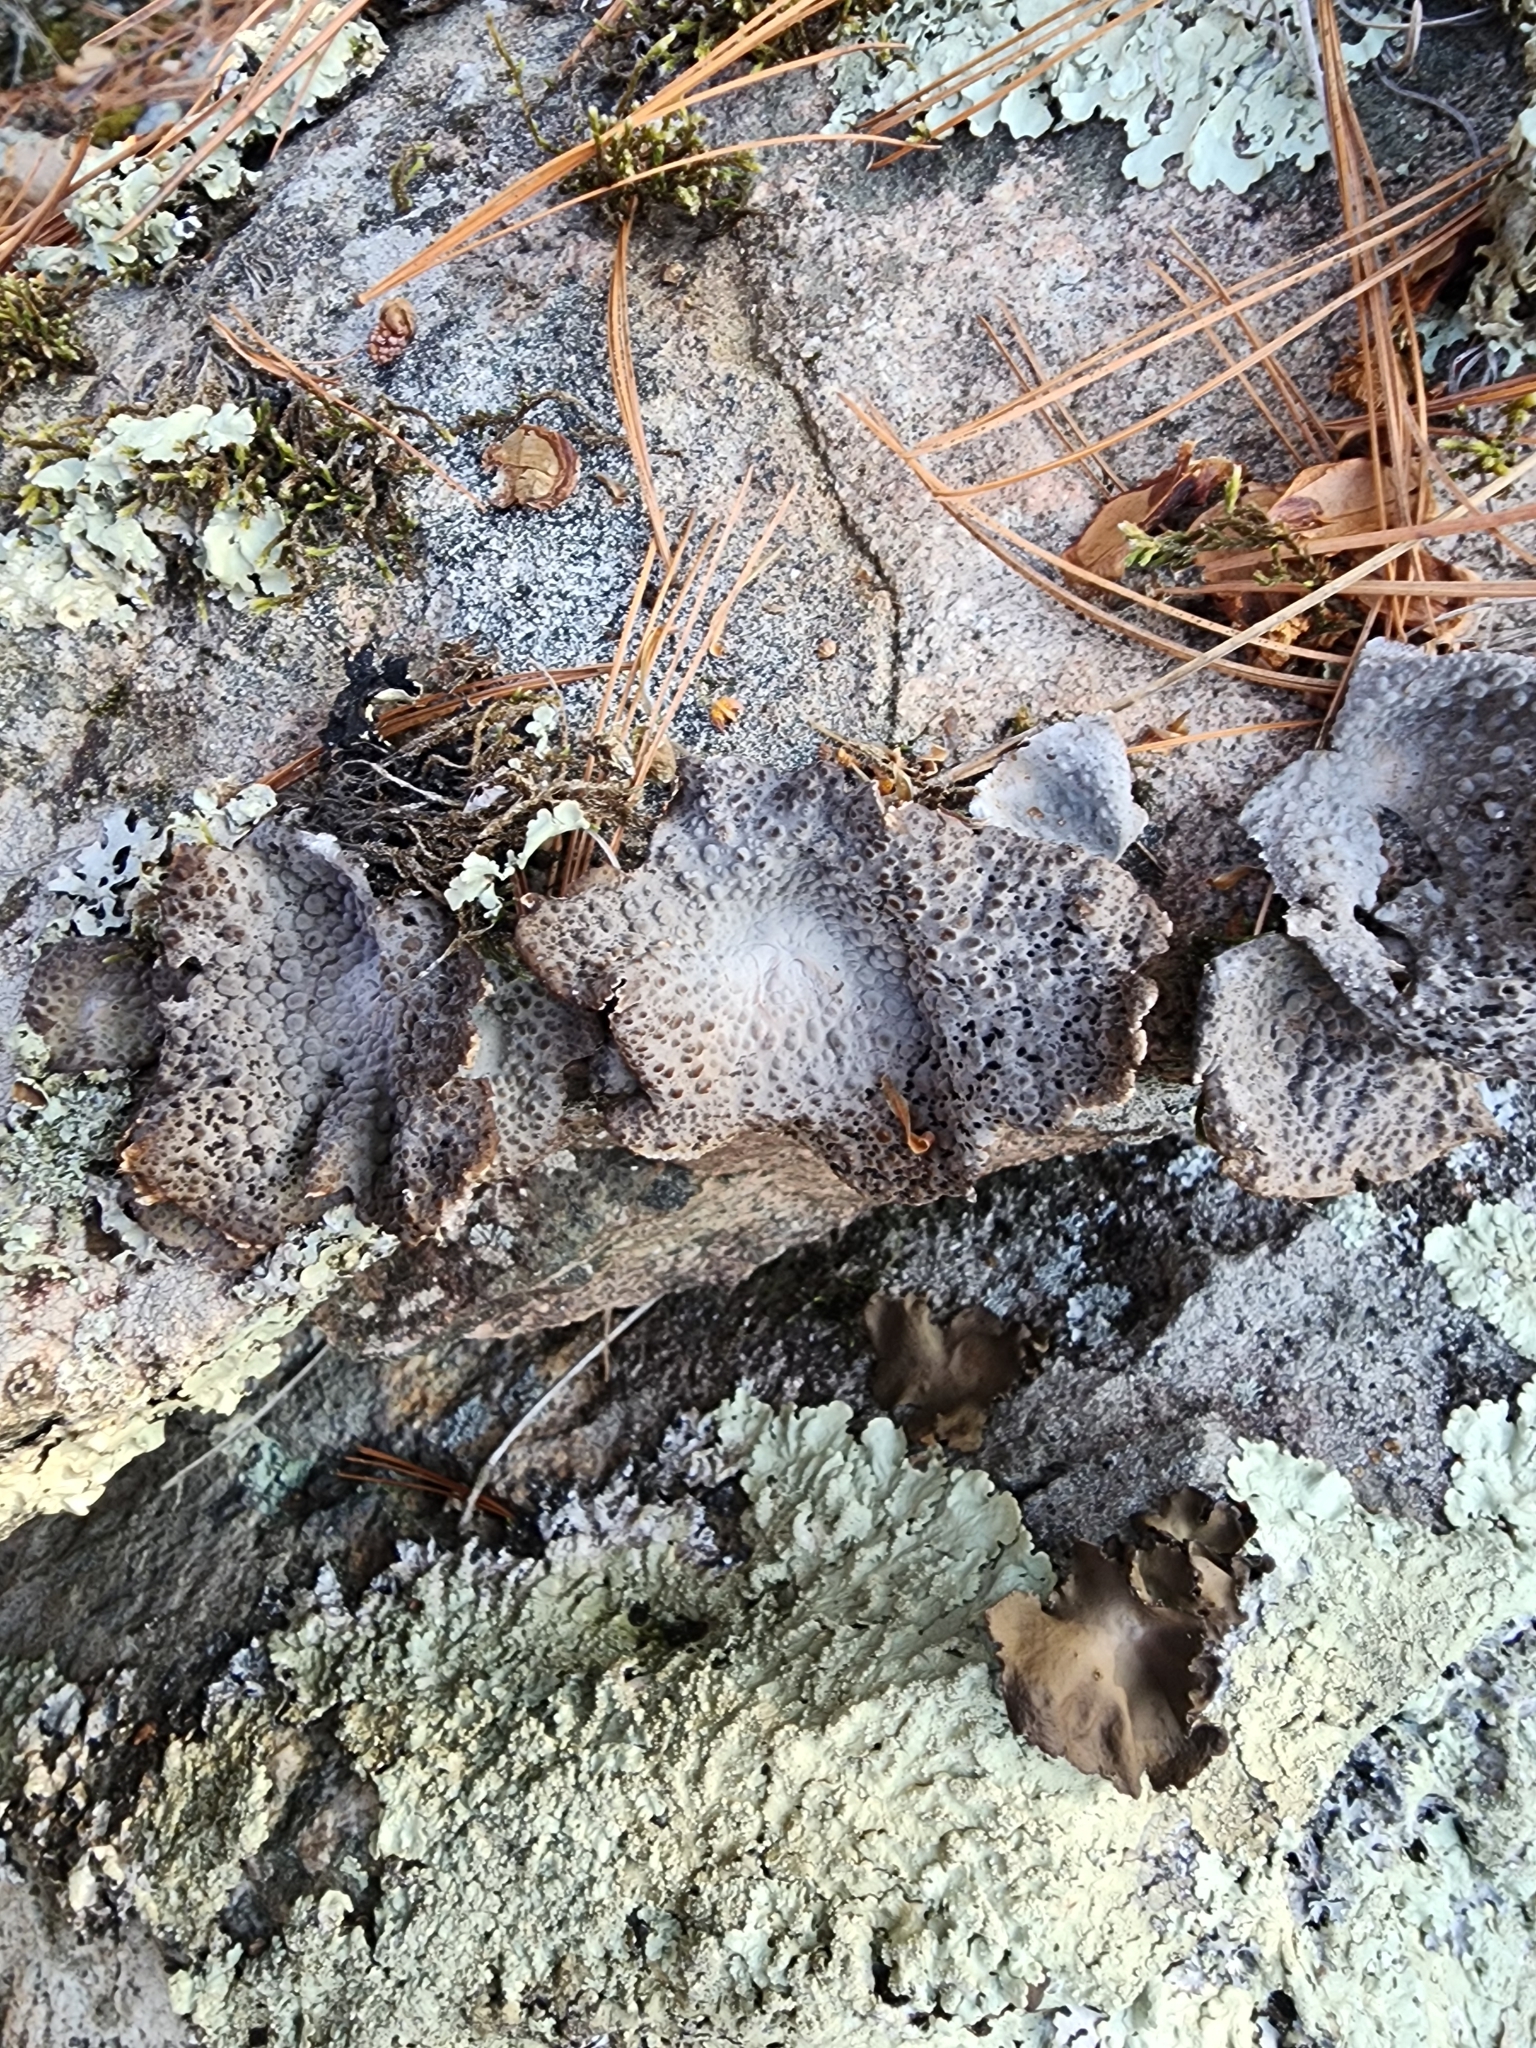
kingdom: Fungi
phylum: Ascomycota
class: Lecanoromycetes
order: Umbilicariales
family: Umbilicariaceae
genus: Lasallia
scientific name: Lasallia papulosa
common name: Common toadskin lichen
